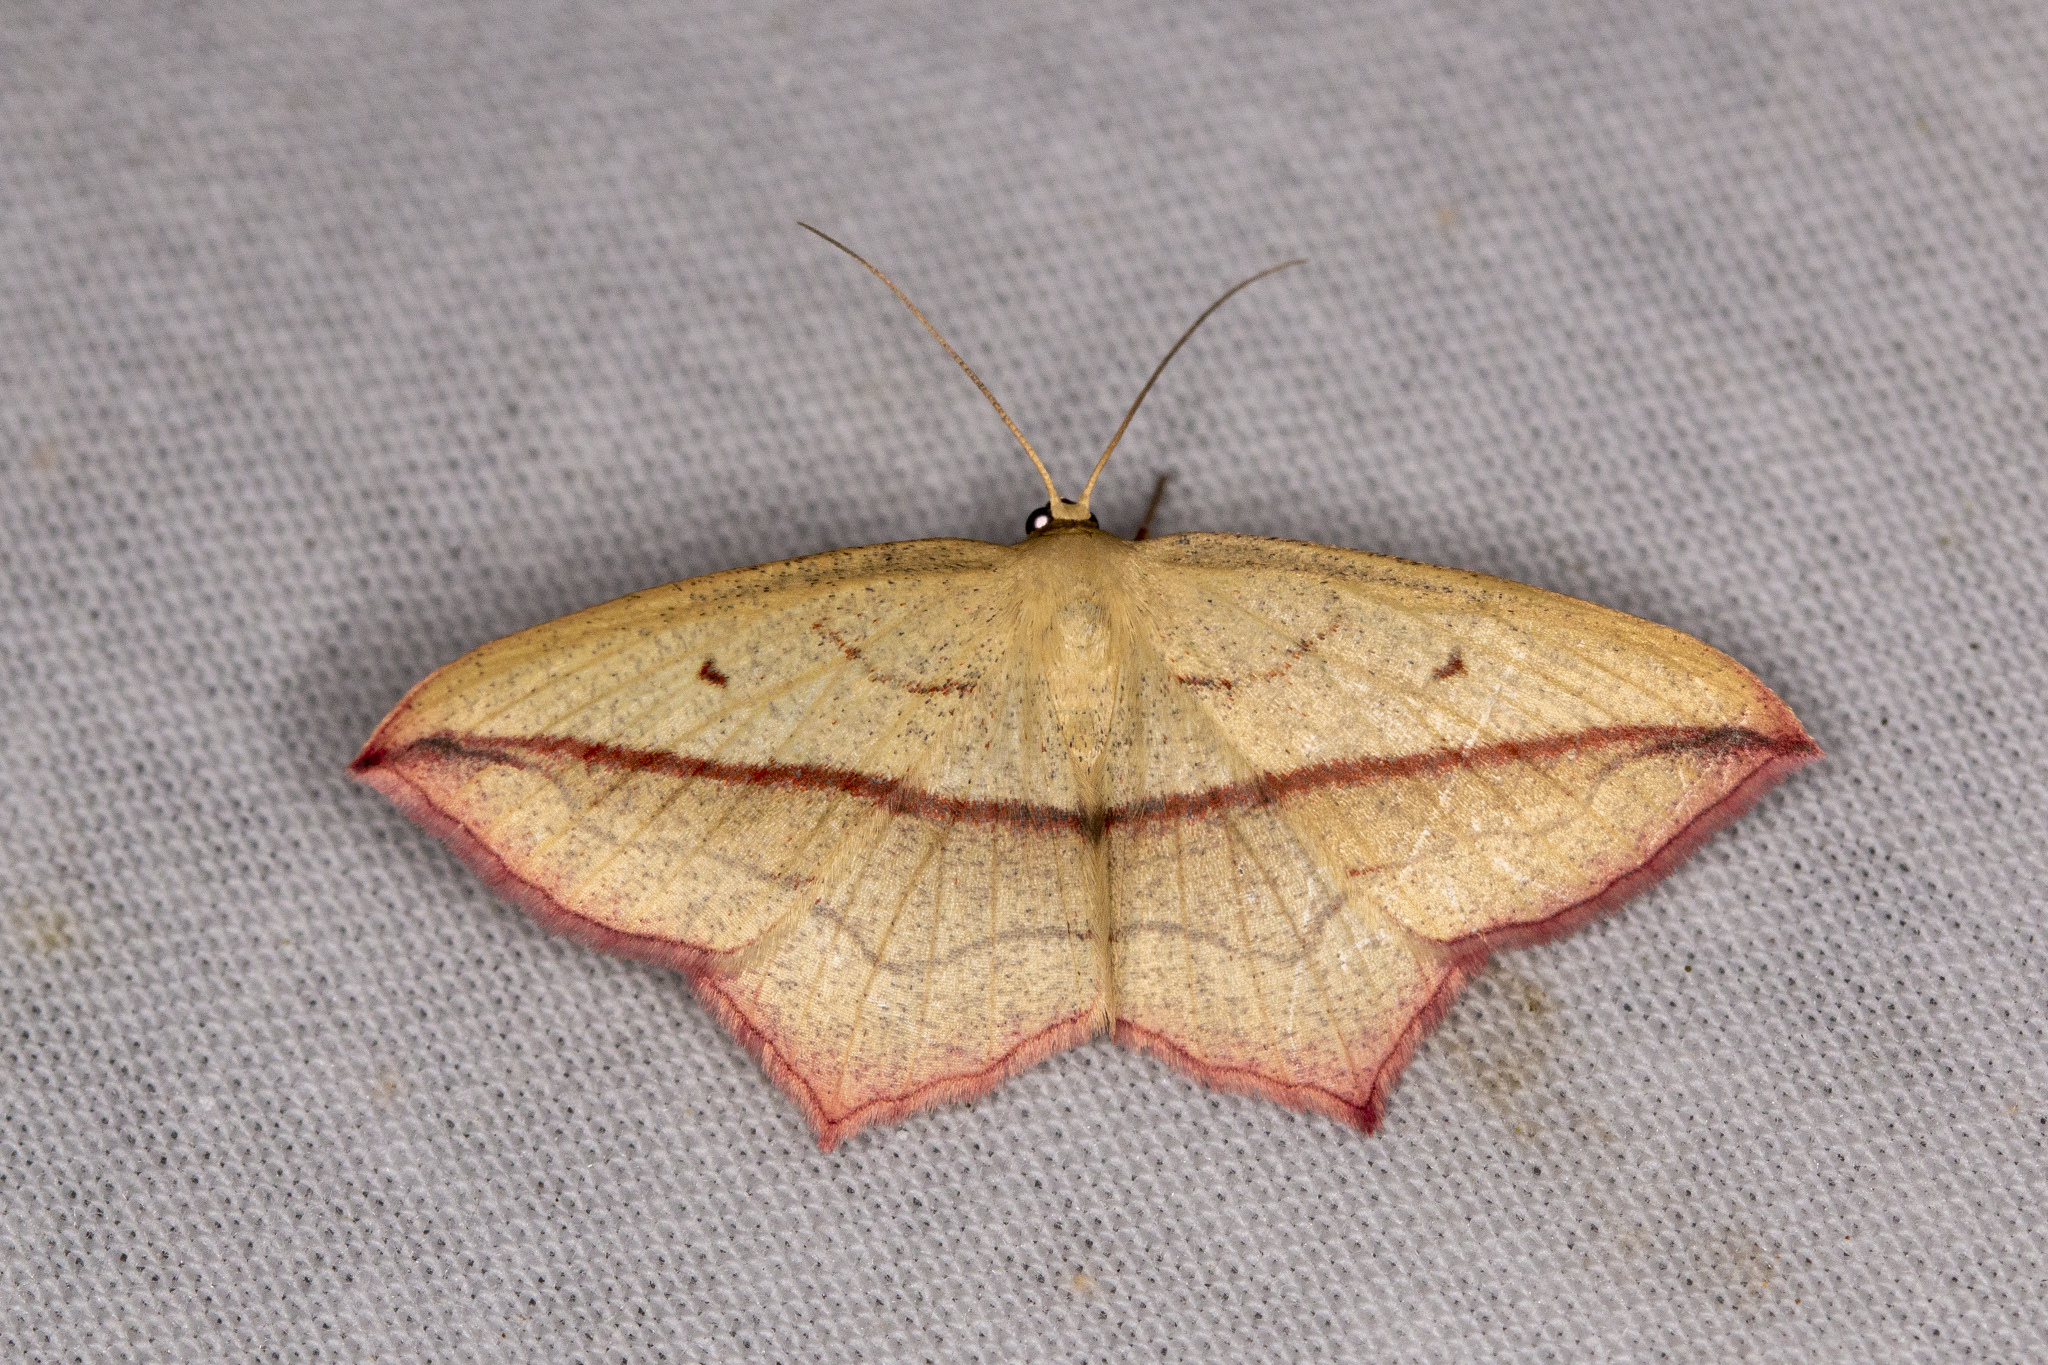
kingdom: Animalia
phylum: Arthropoda
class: Insecta
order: Lepidoptera
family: Geometridae
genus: Timandra
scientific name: Timandra comae
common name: Blood-vein
